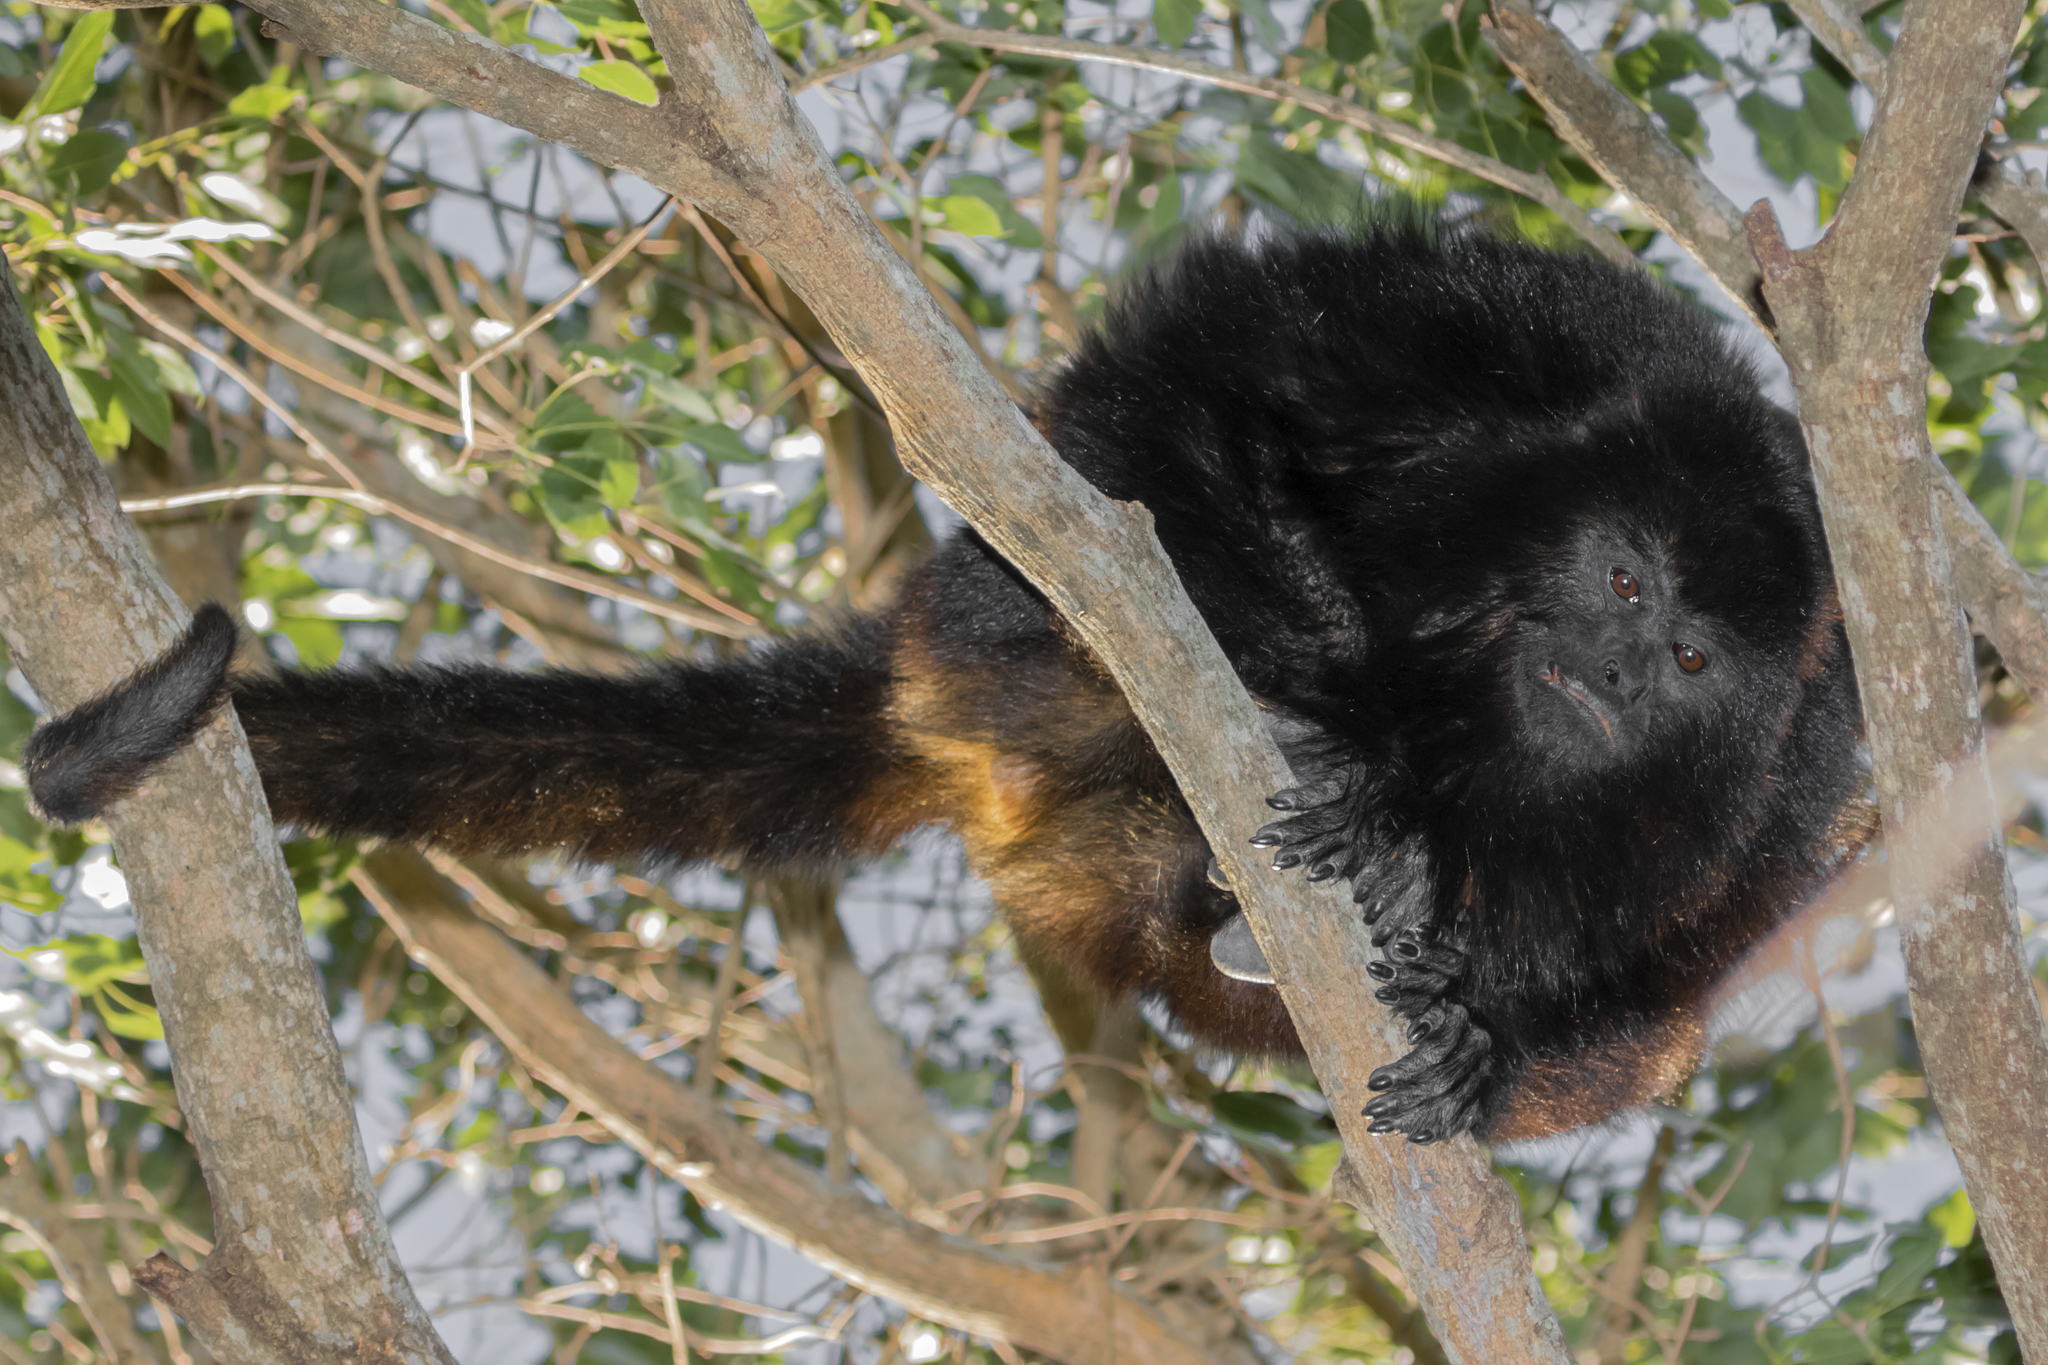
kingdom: Animalia
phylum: Chordata
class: Mammalia
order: Primates
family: Atelidae
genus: Alouatta
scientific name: Alouatta caraya
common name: Black howler
